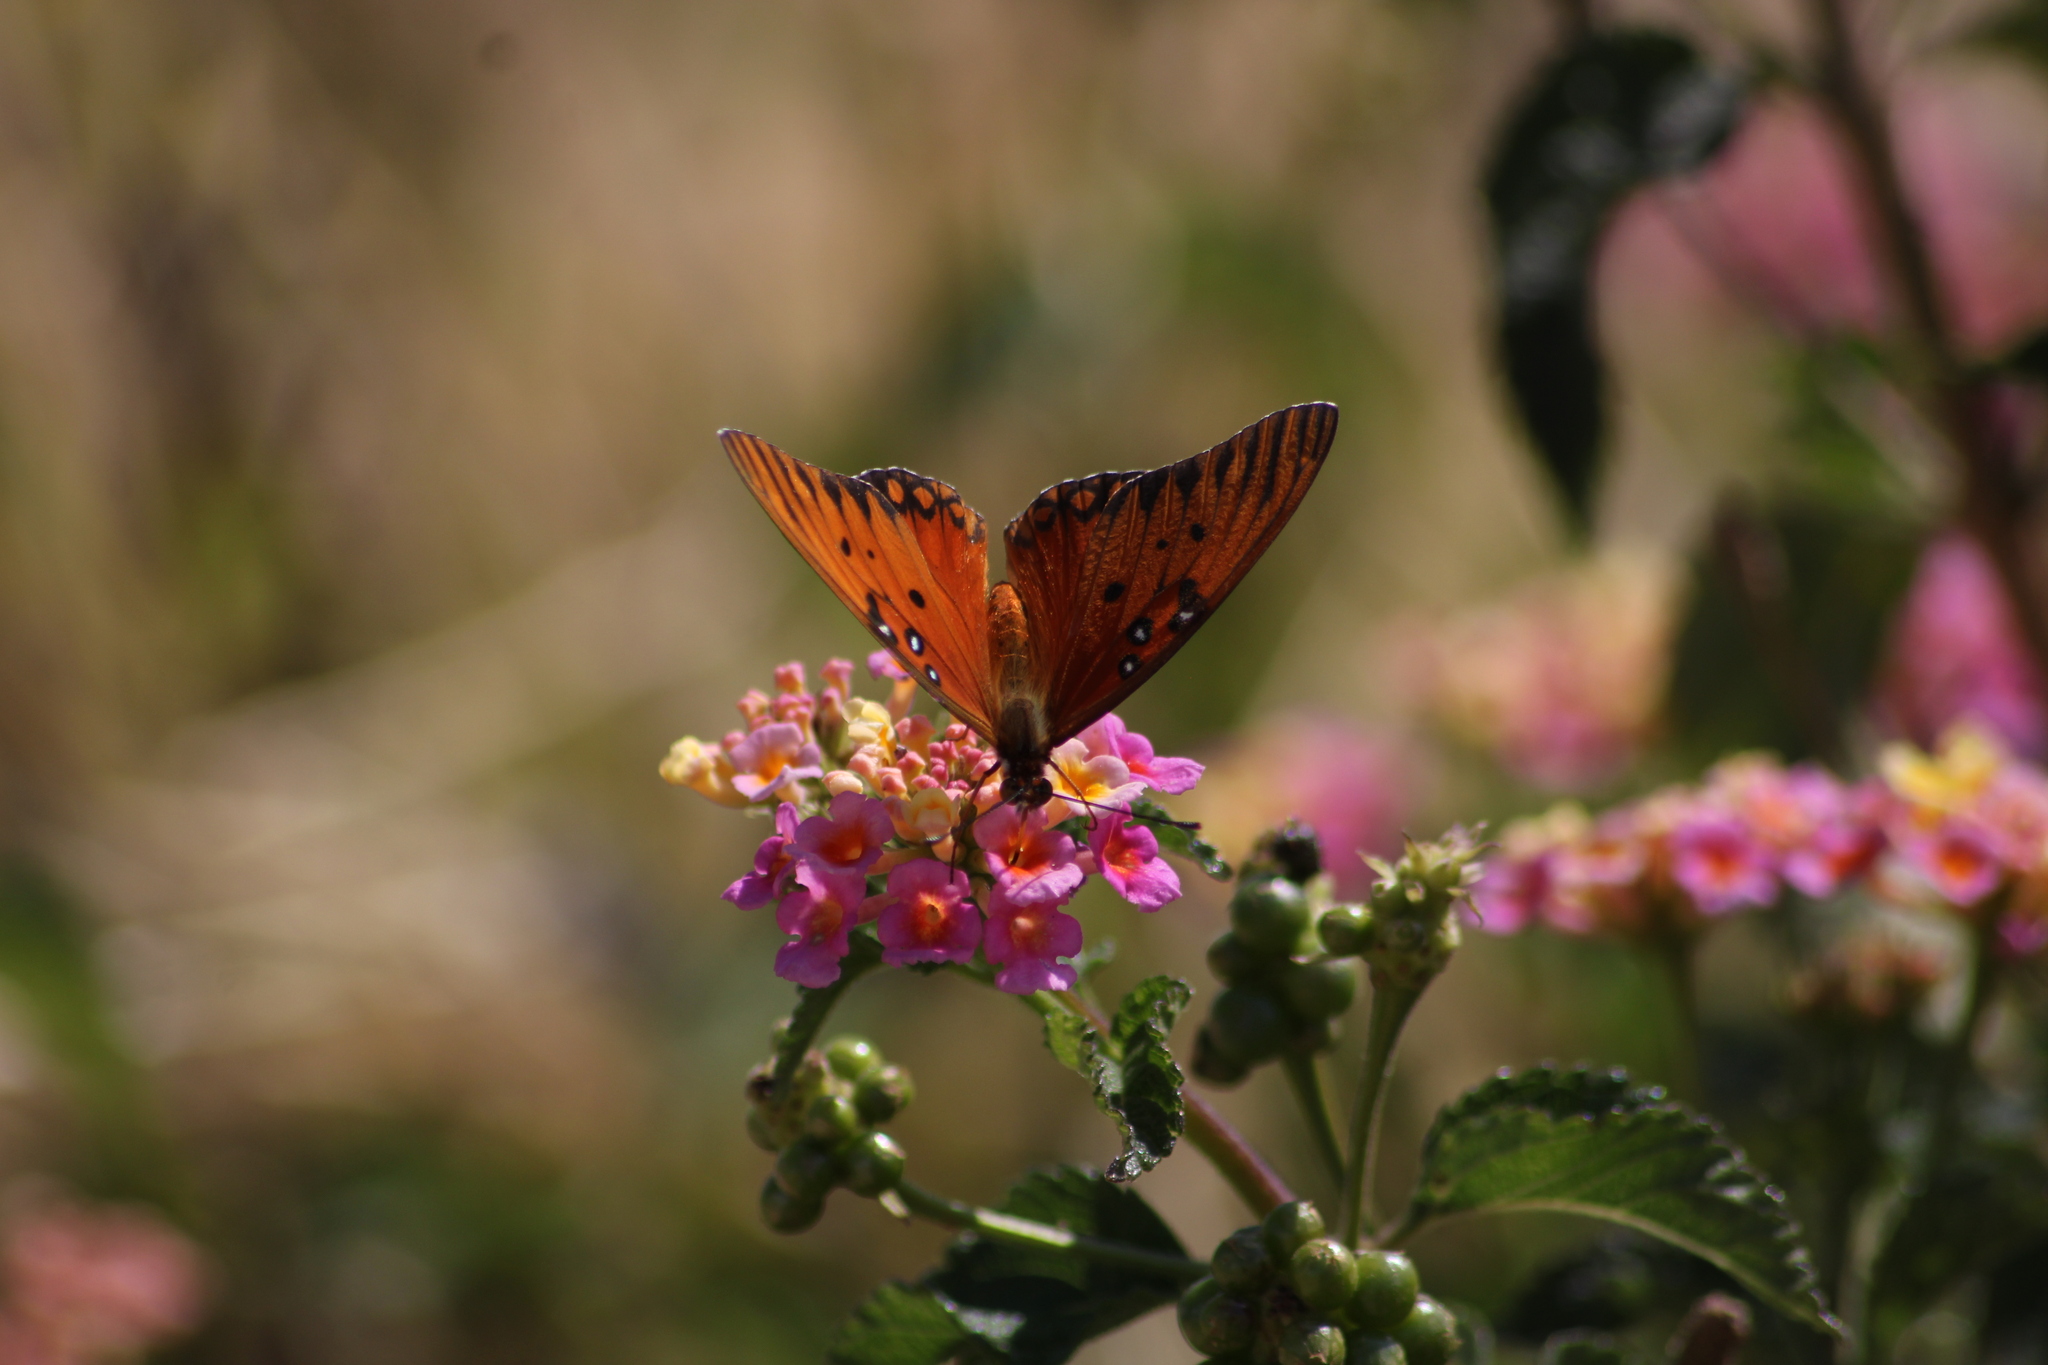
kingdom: Animalia
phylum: Arthropoda
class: Insecta
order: Lepidoptera
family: Nymphalidae
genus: Dione
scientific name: Dione vanillae
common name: Gulf fritillary
